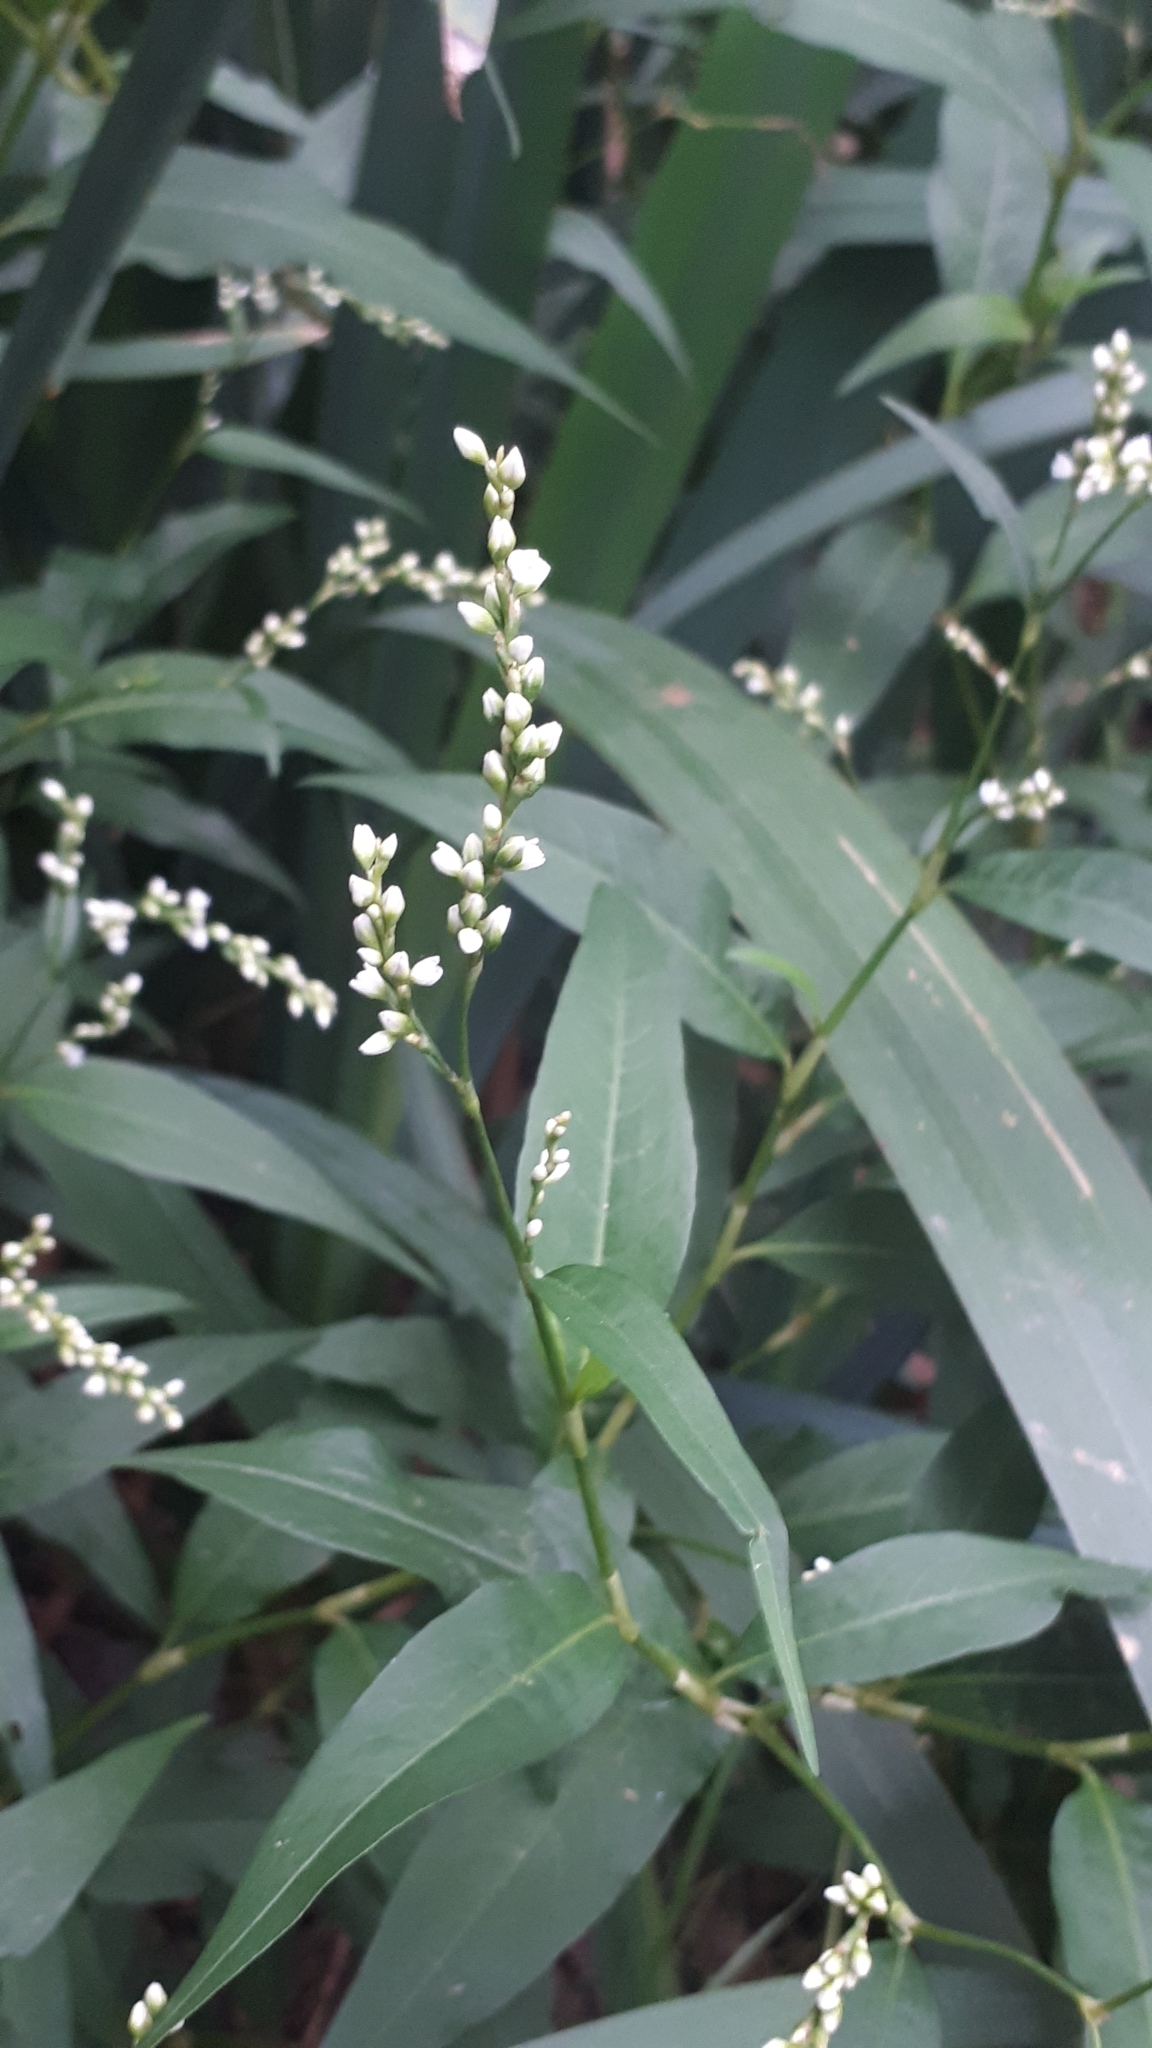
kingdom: Plantae
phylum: Tracheophyta
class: Magnoliopsida
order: Caryophyllales
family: Polygonaceae
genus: Persicaria
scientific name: Persicaria punctata
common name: Dotted smartweed
